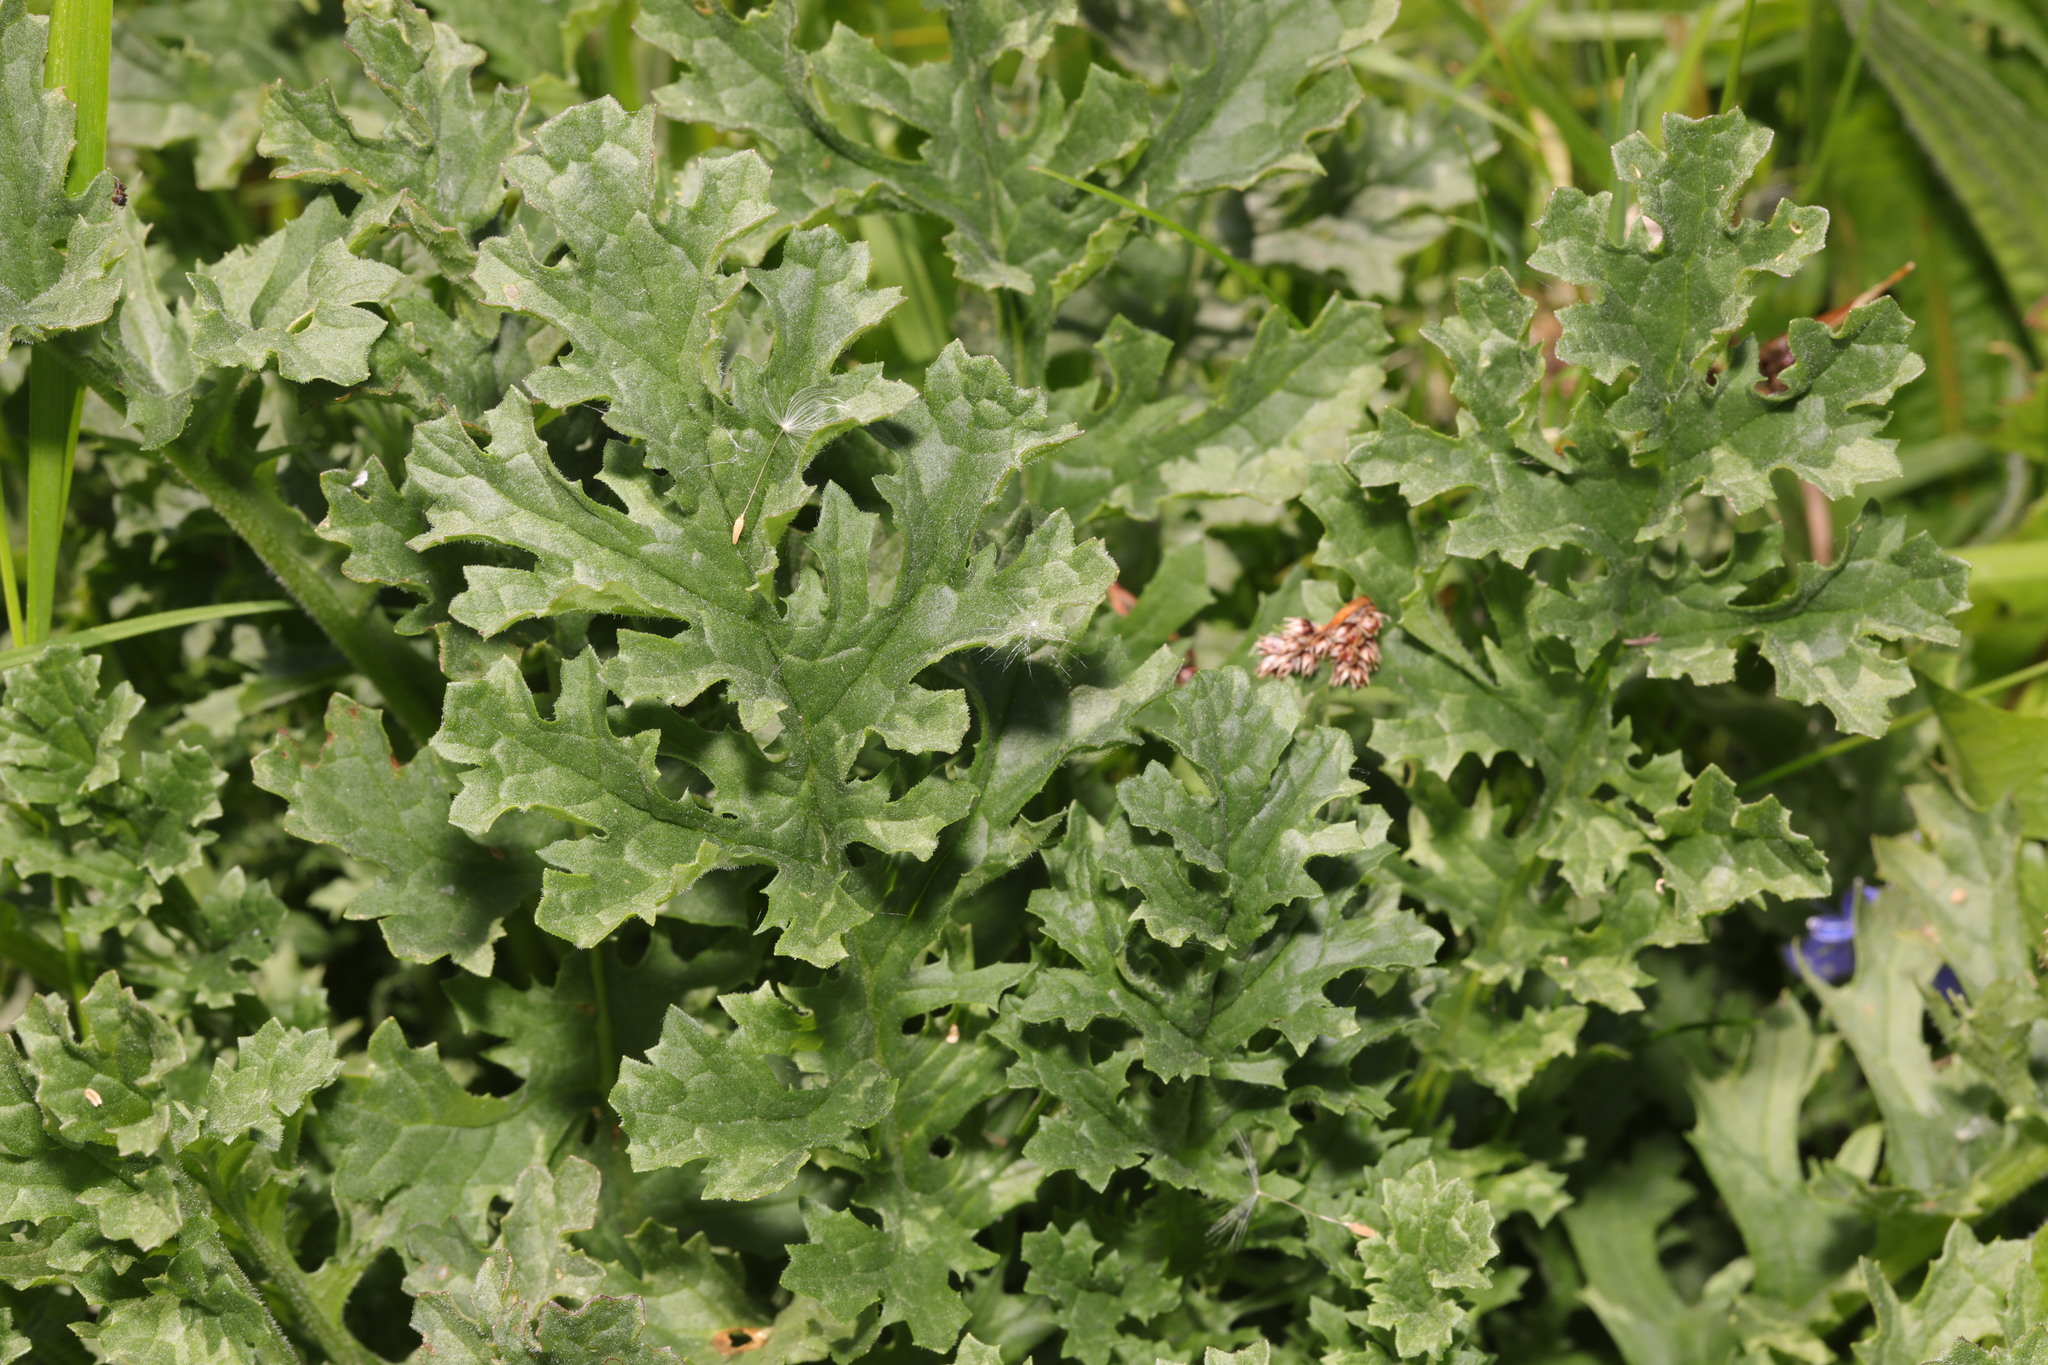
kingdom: Plantae
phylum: Tracheophyta
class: Magnoliopsida
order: Asterales
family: Asteraceae
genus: Jacobaea
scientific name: Jacobaea vulgaris
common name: Stinking willie
